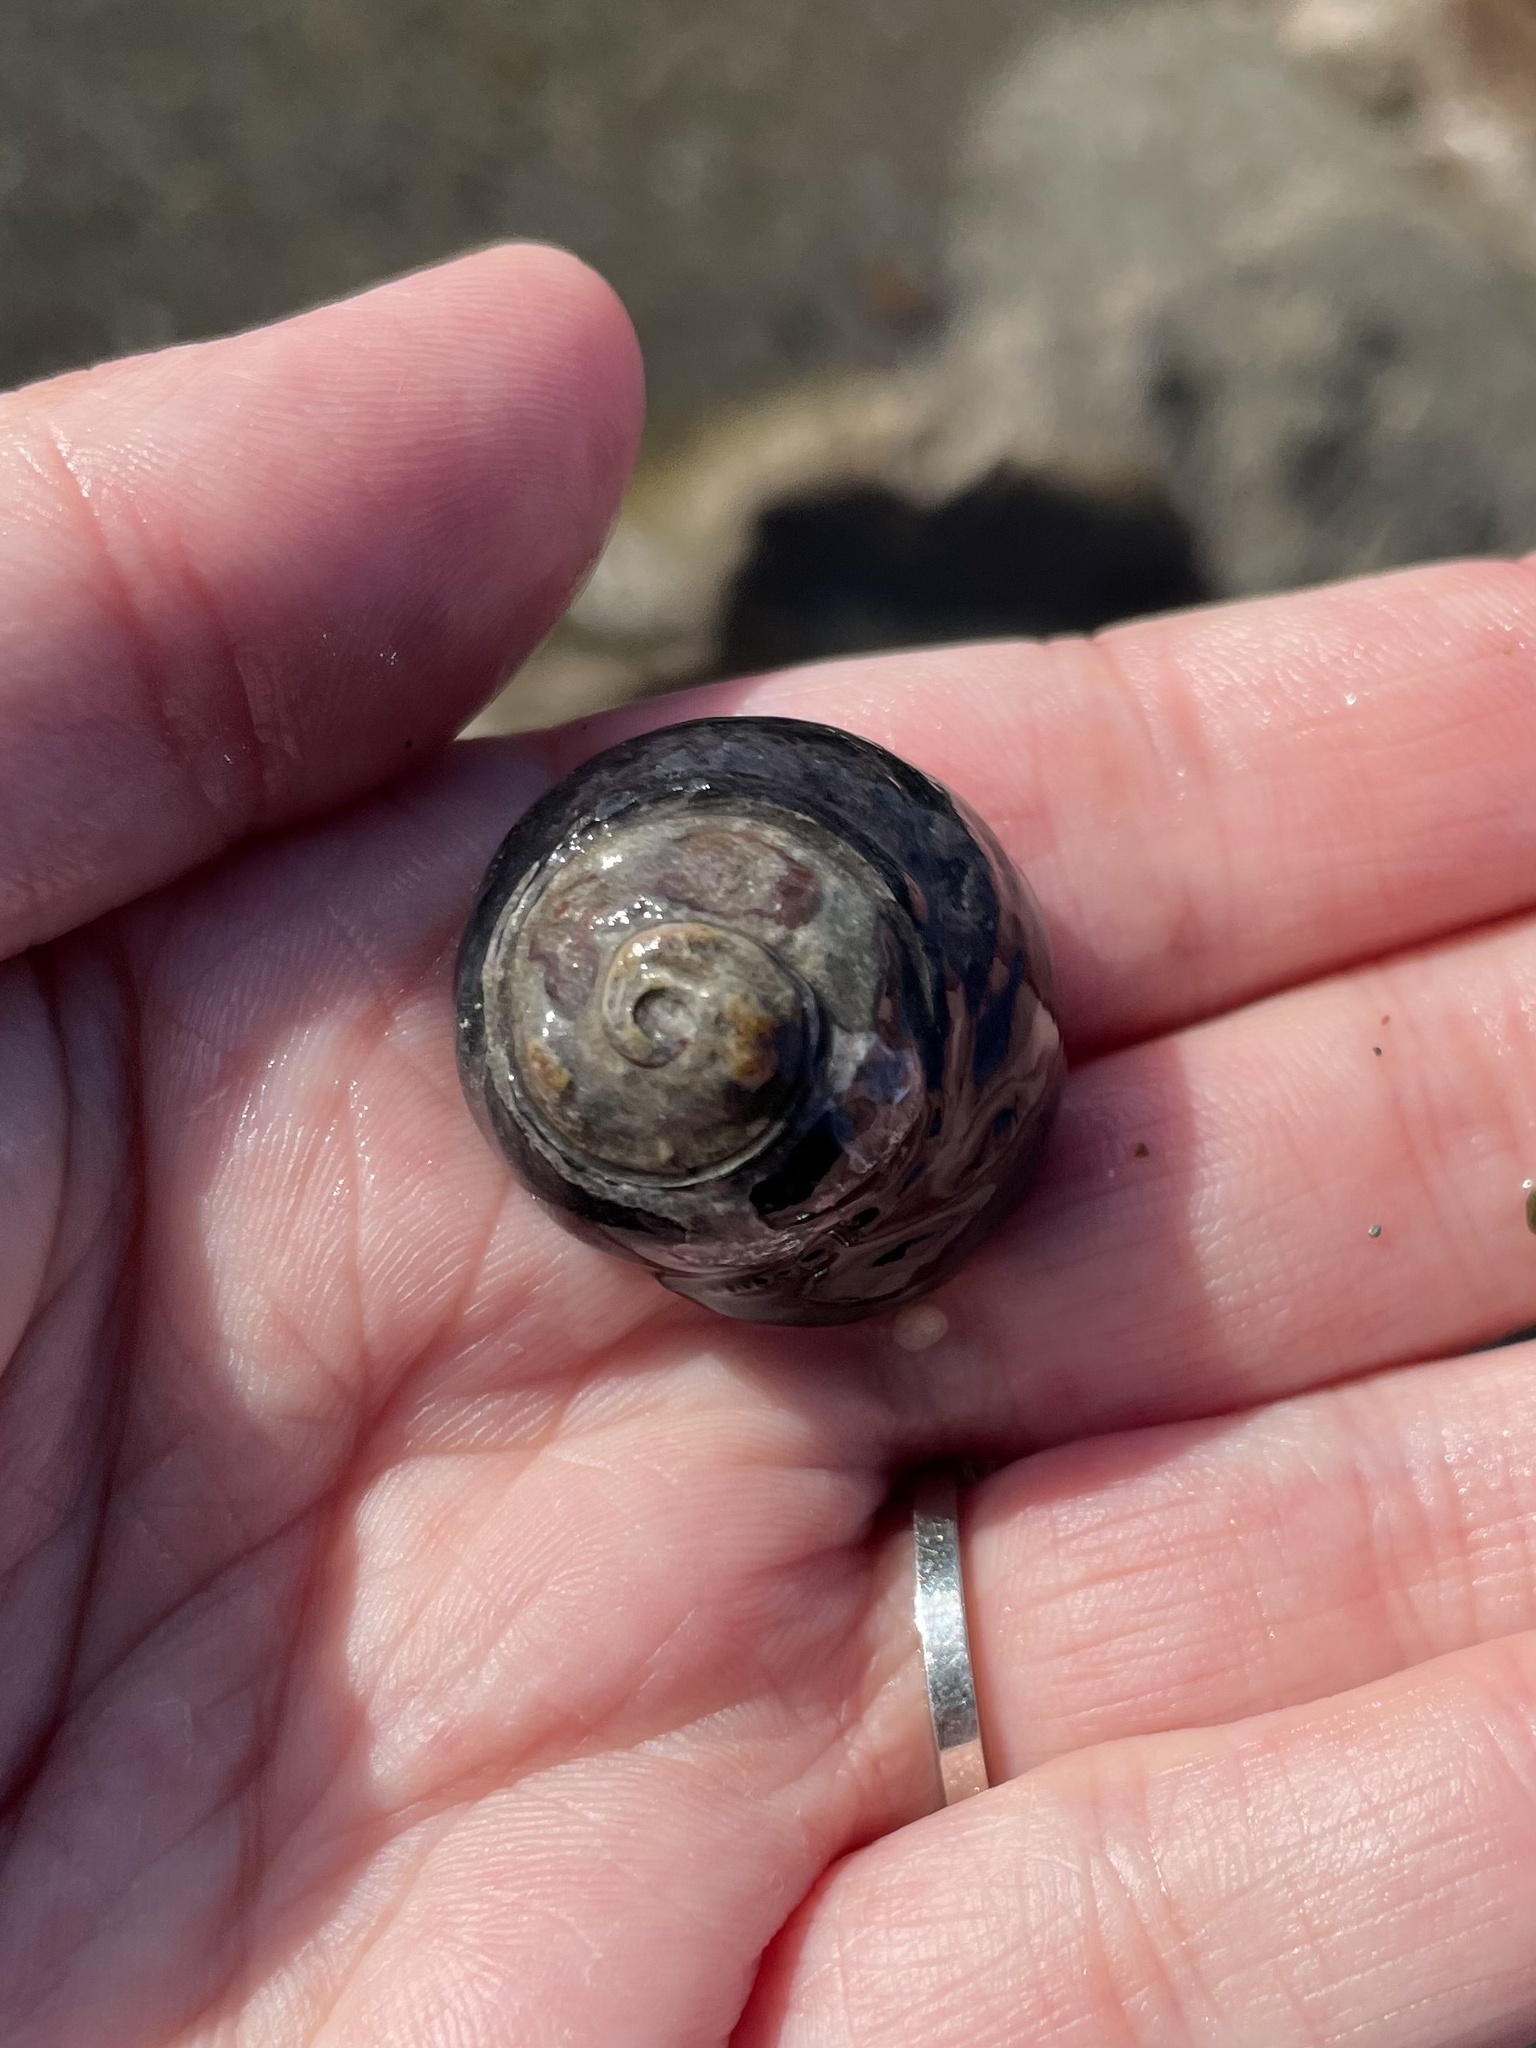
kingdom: Animalia
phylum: Mollusca
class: Gastropoda
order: Trochida
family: Tegulidae
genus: Tegula
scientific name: Tegula funebralis
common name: Black tegula
